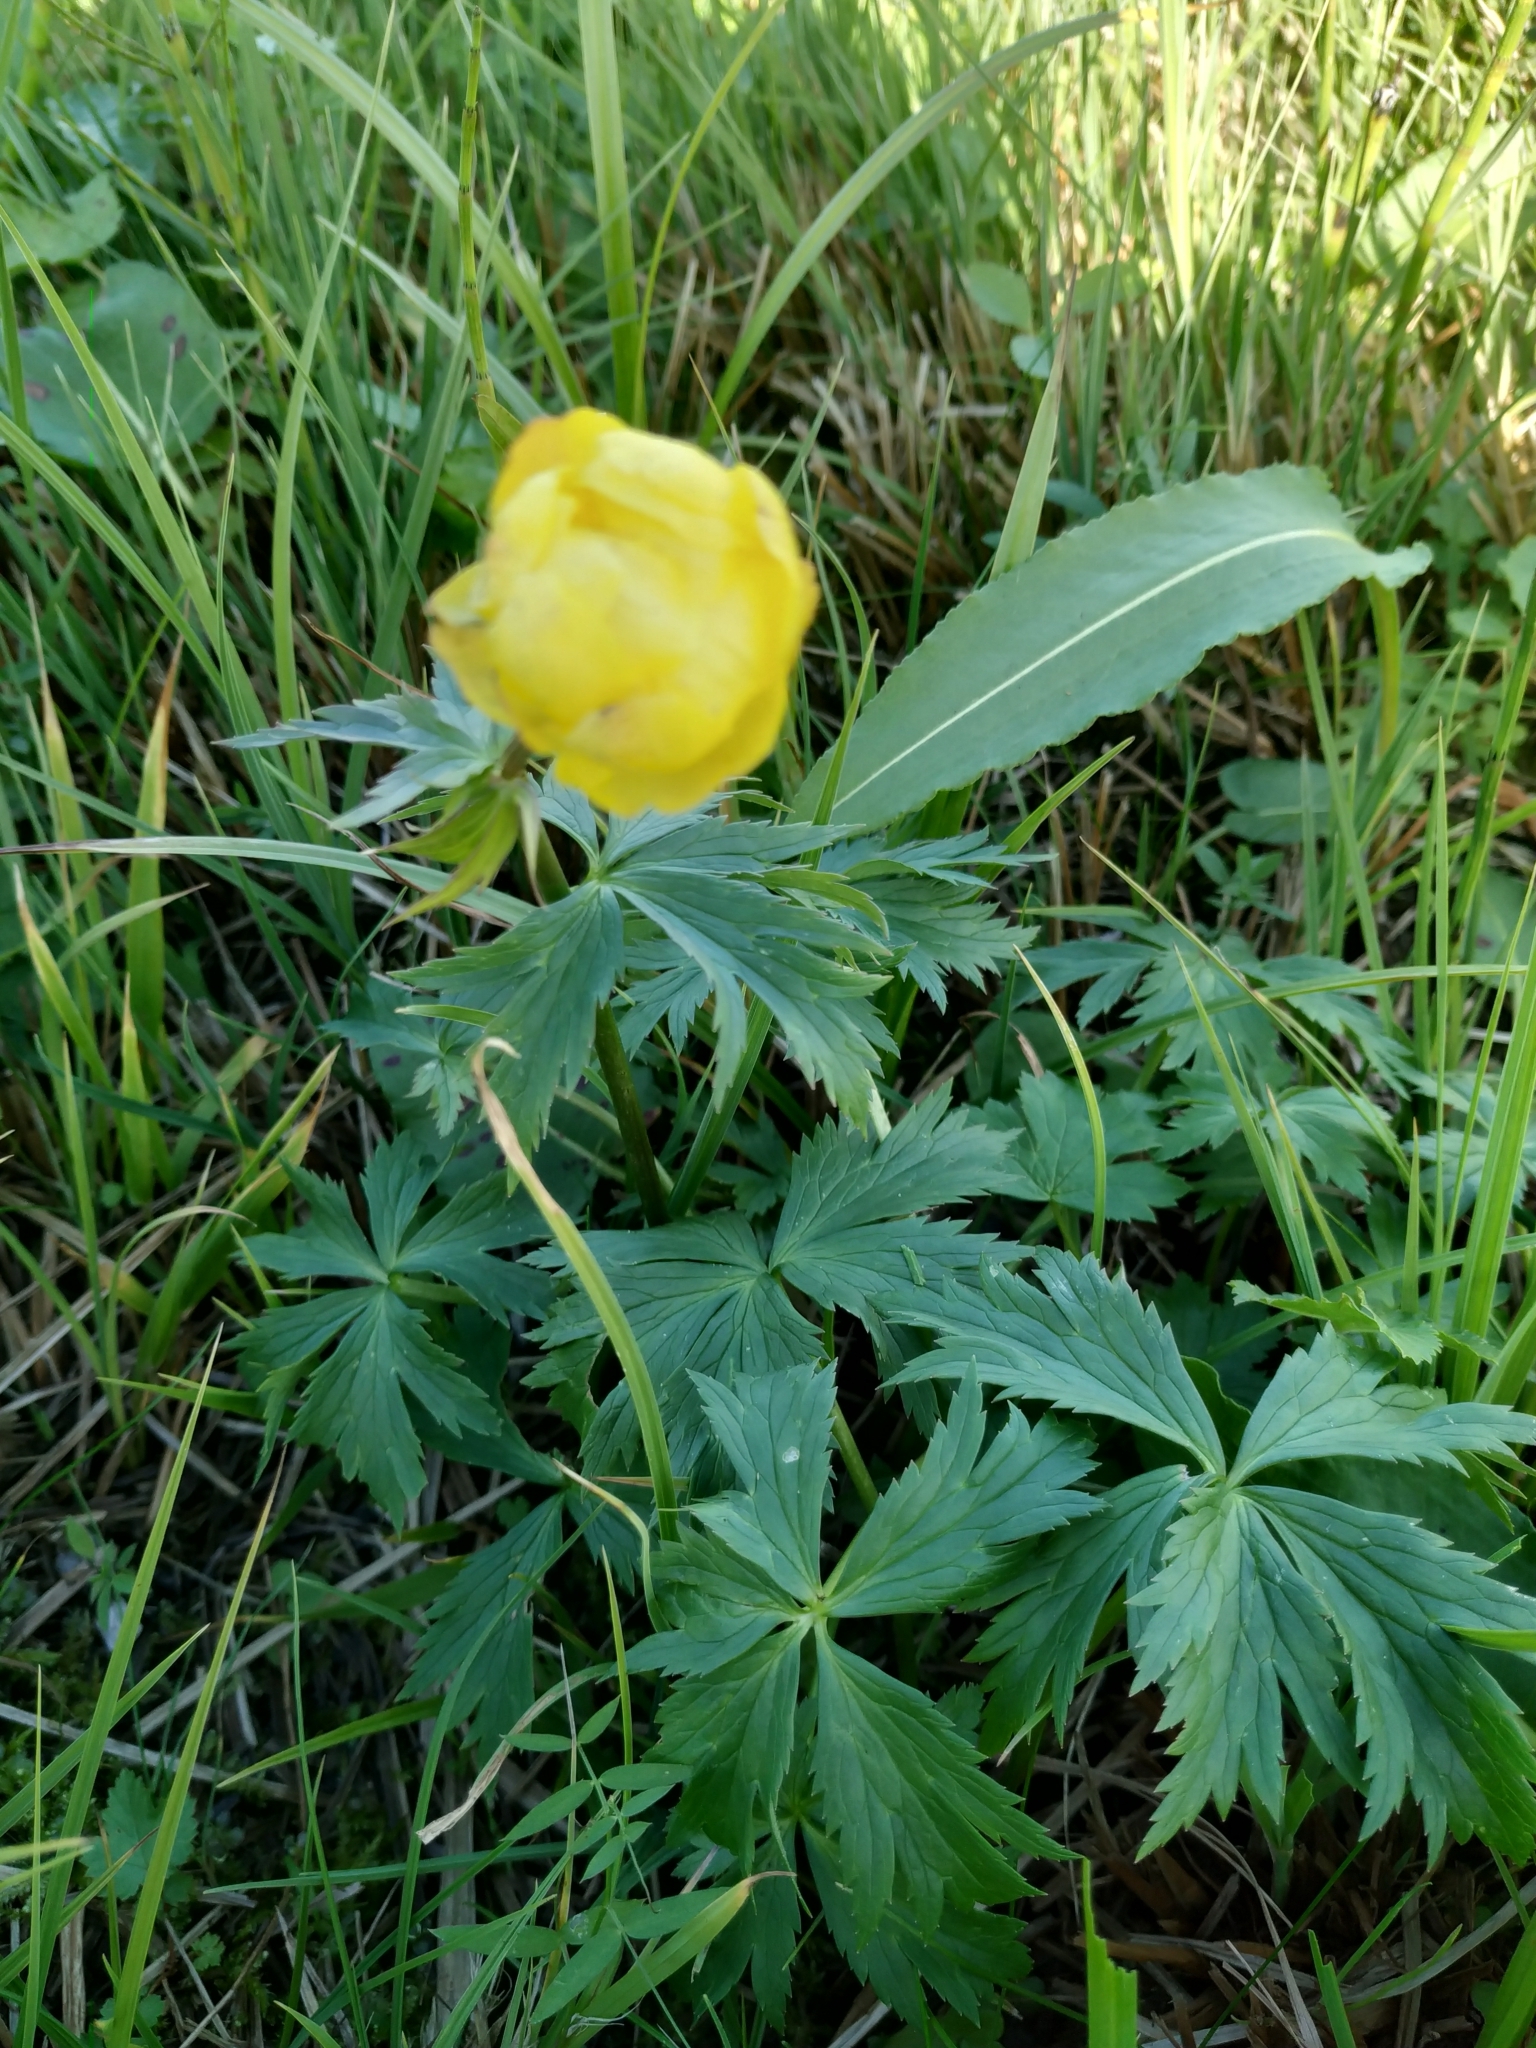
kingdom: Plantae
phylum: Tracheophyta
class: Magnoliopsida
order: Ranunculales
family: Ranunculaceae
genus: Trollius
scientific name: Trollius europaeus
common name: European globeflower
